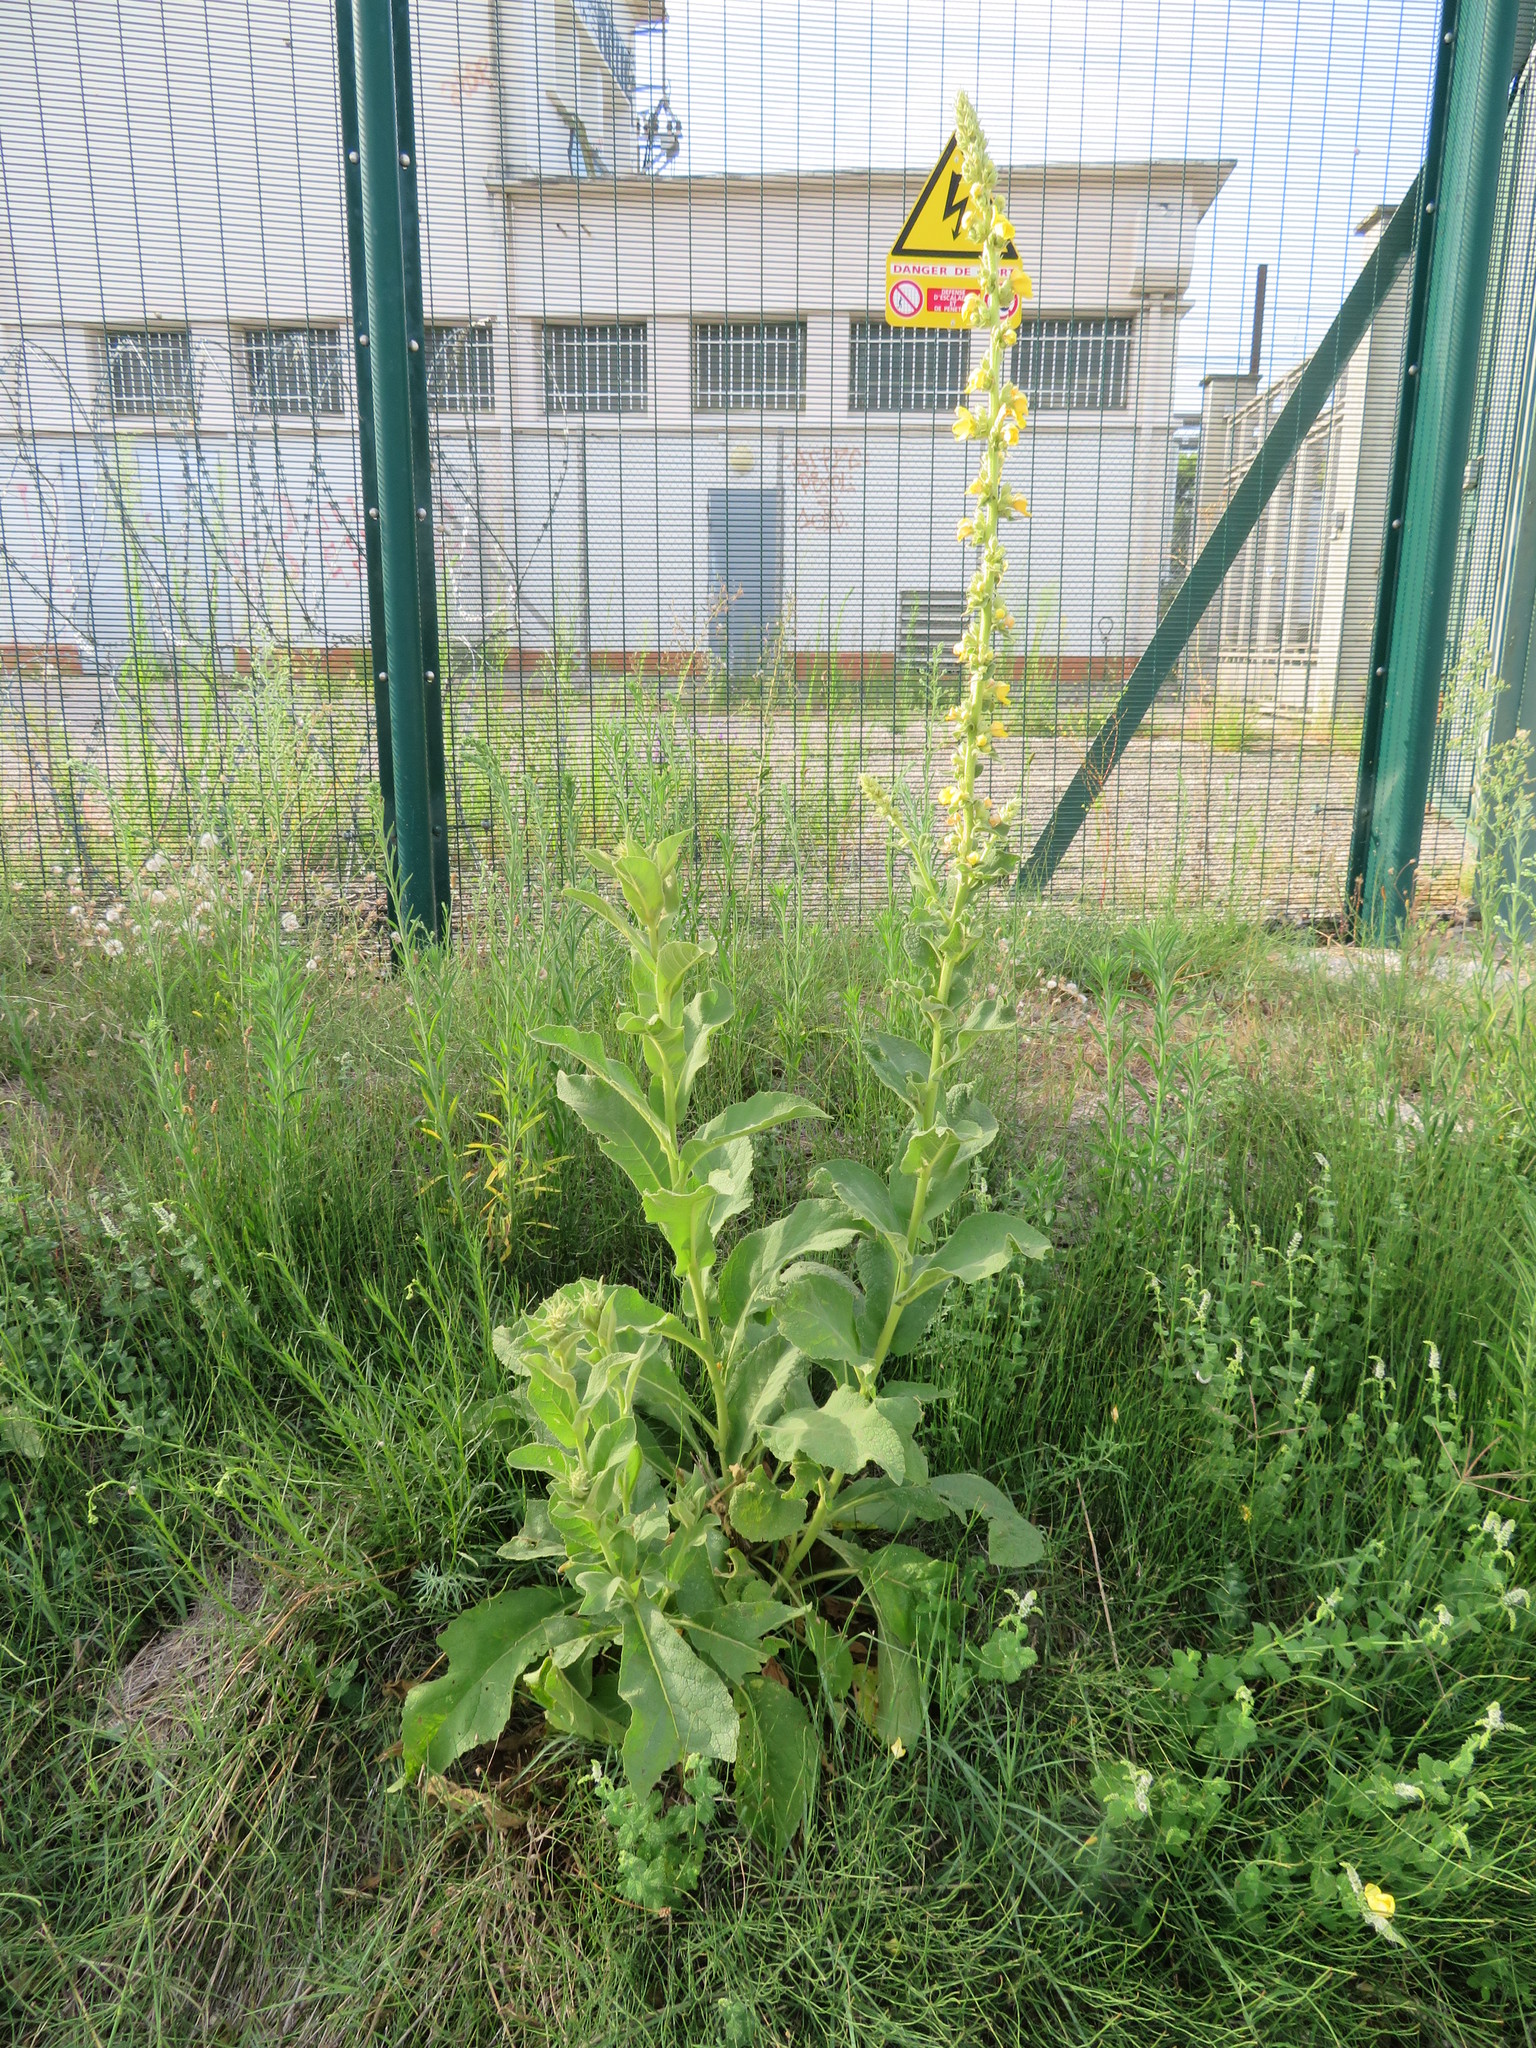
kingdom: Plantae
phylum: Tracheophyta
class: Magnoliopsida
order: Lamiales
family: Scrophulariaceae
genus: Verbascum
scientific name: Verbascum phlomoides
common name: Orange mullein
